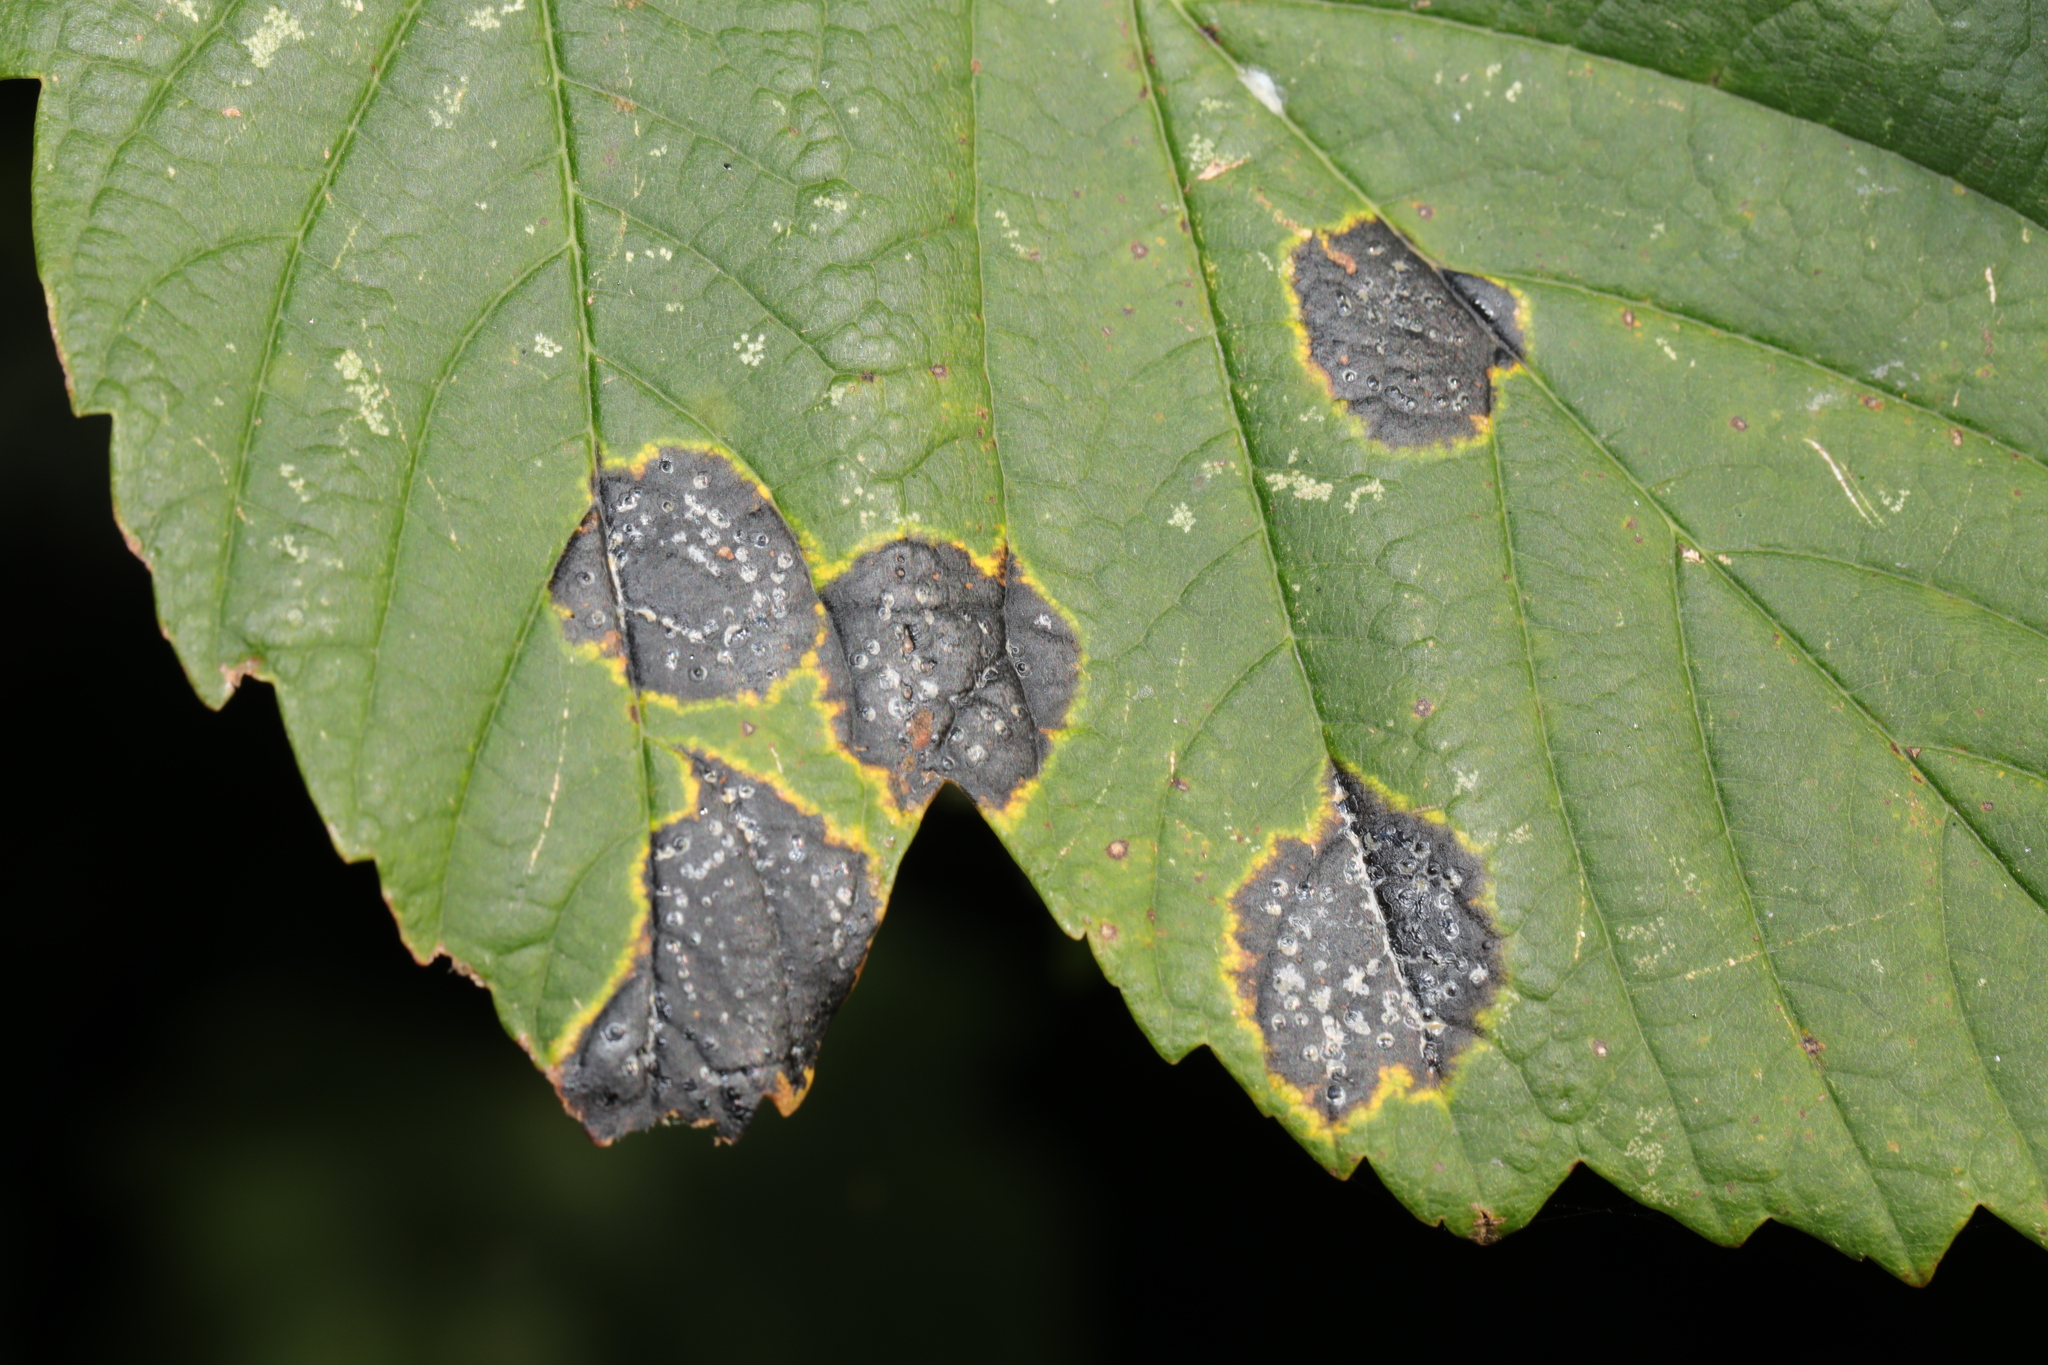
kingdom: Fungi
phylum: Ascomycota
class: Leotiomycetes
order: Rhytismatales
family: Rhytismataceae
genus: Rhytisma
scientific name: Rhytisma acerinum
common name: European tar spot
